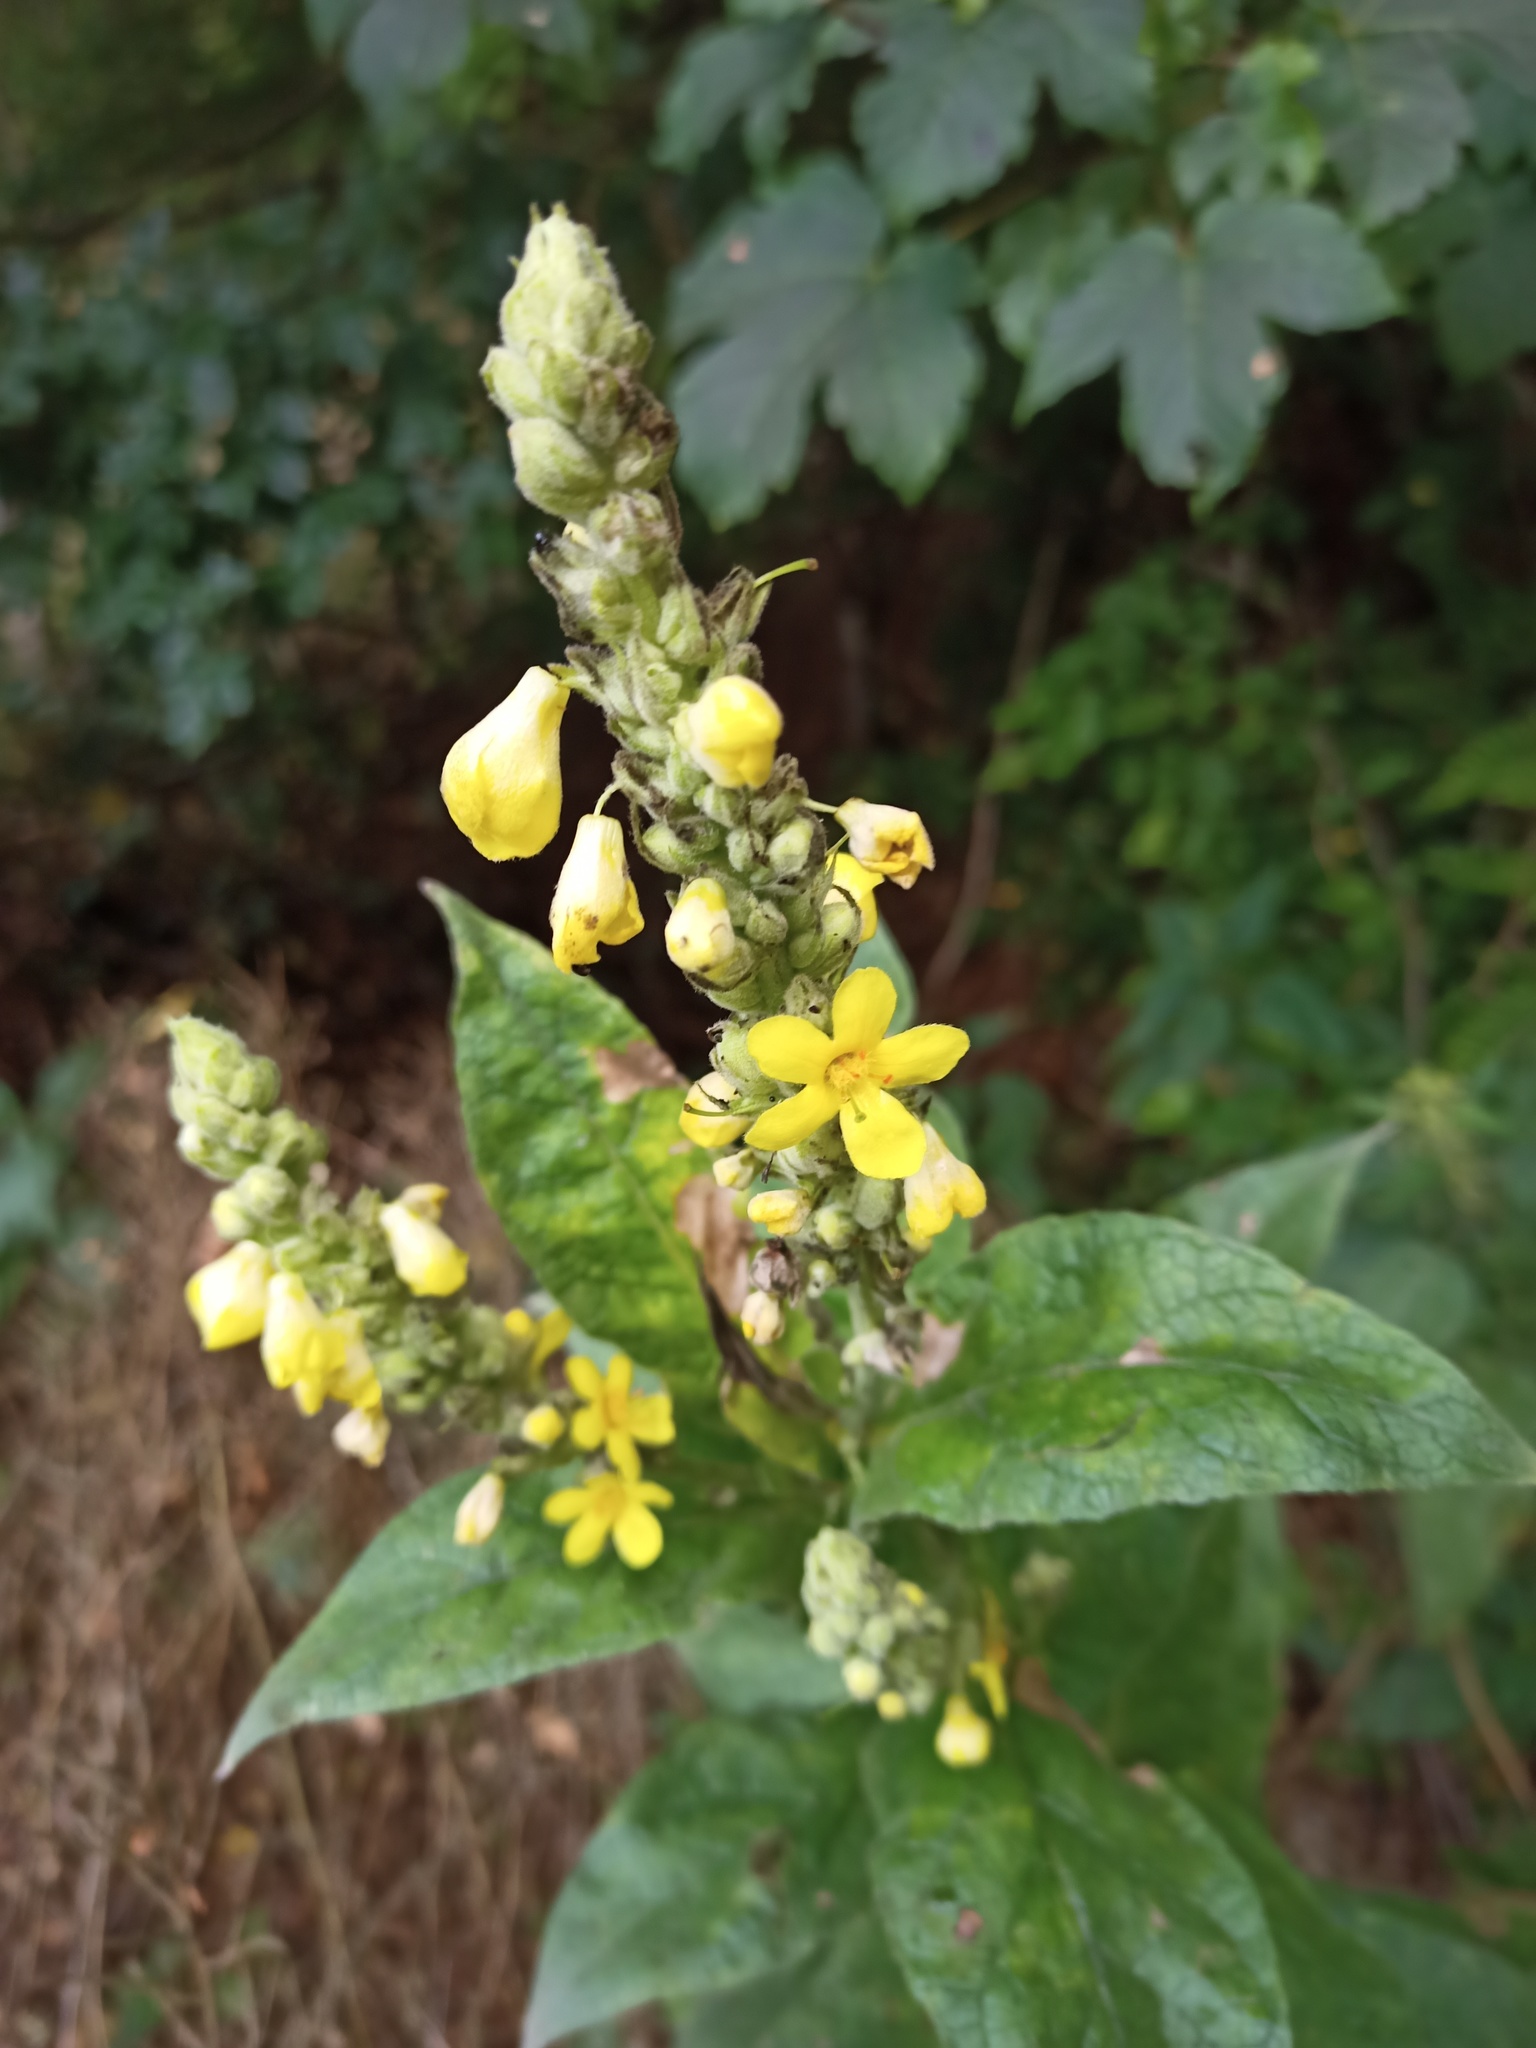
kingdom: Plantae
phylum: Tracheophyta
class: Magnoliopsida
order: Lamiales
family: Scrophulariaceae
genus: Verbascum
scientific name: Verbascum thapsus
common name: Common mullein
